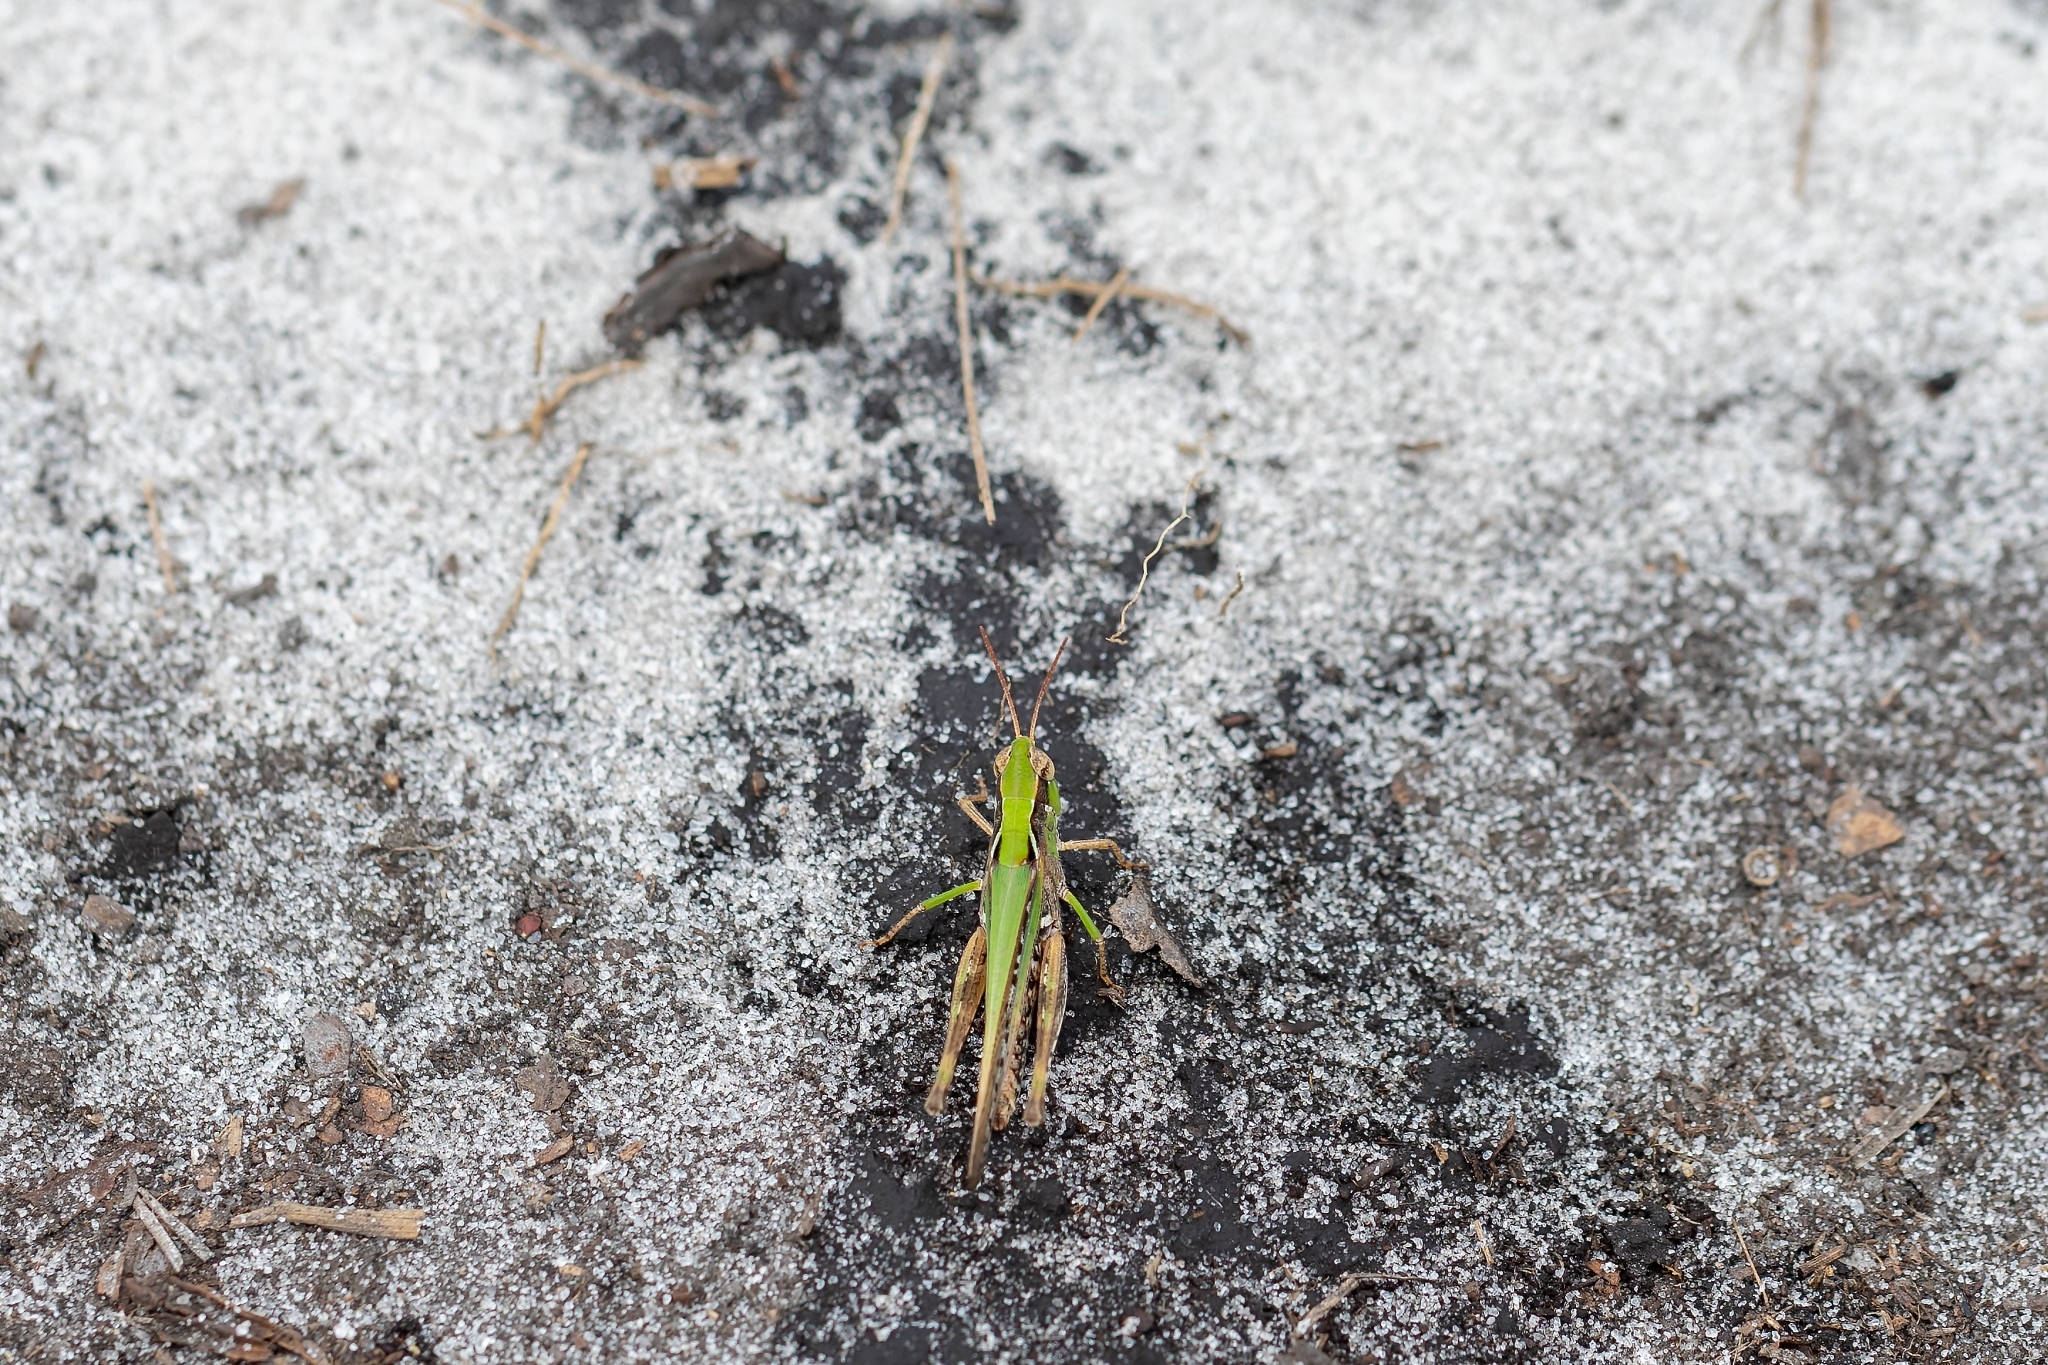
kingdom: Animalia
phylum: Arthropoda
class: Insecta
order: Orthoptera
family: Acrididae
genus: Orphulella
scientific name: Orphulella pelidna
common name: Spotted-wing grasshopper
